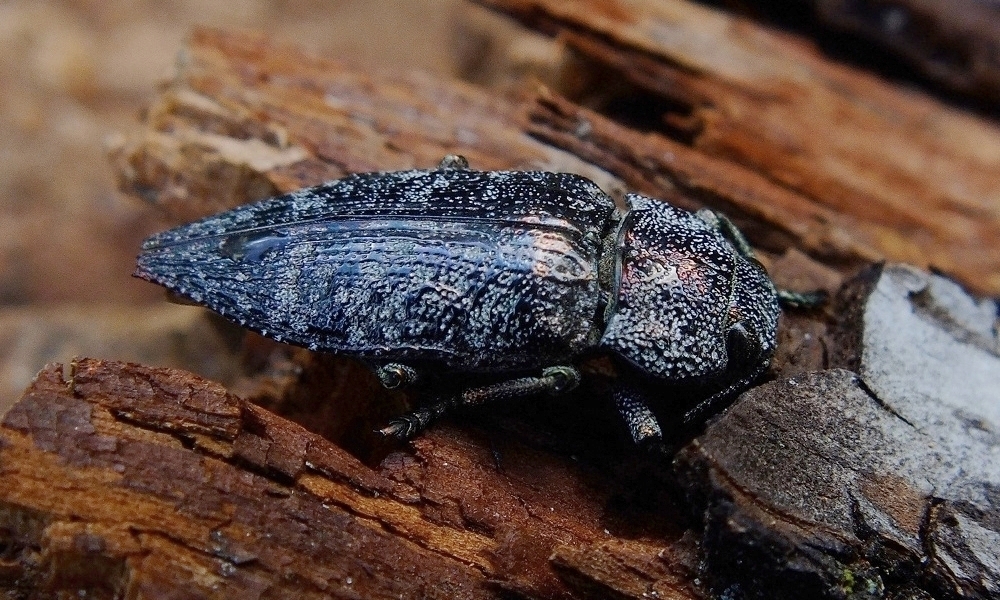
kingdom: Animalia
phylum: Arthropoda
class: Insecta
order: Coleoptera
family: Buprestidae
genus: Dicerca
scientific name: Dicerca aenea
